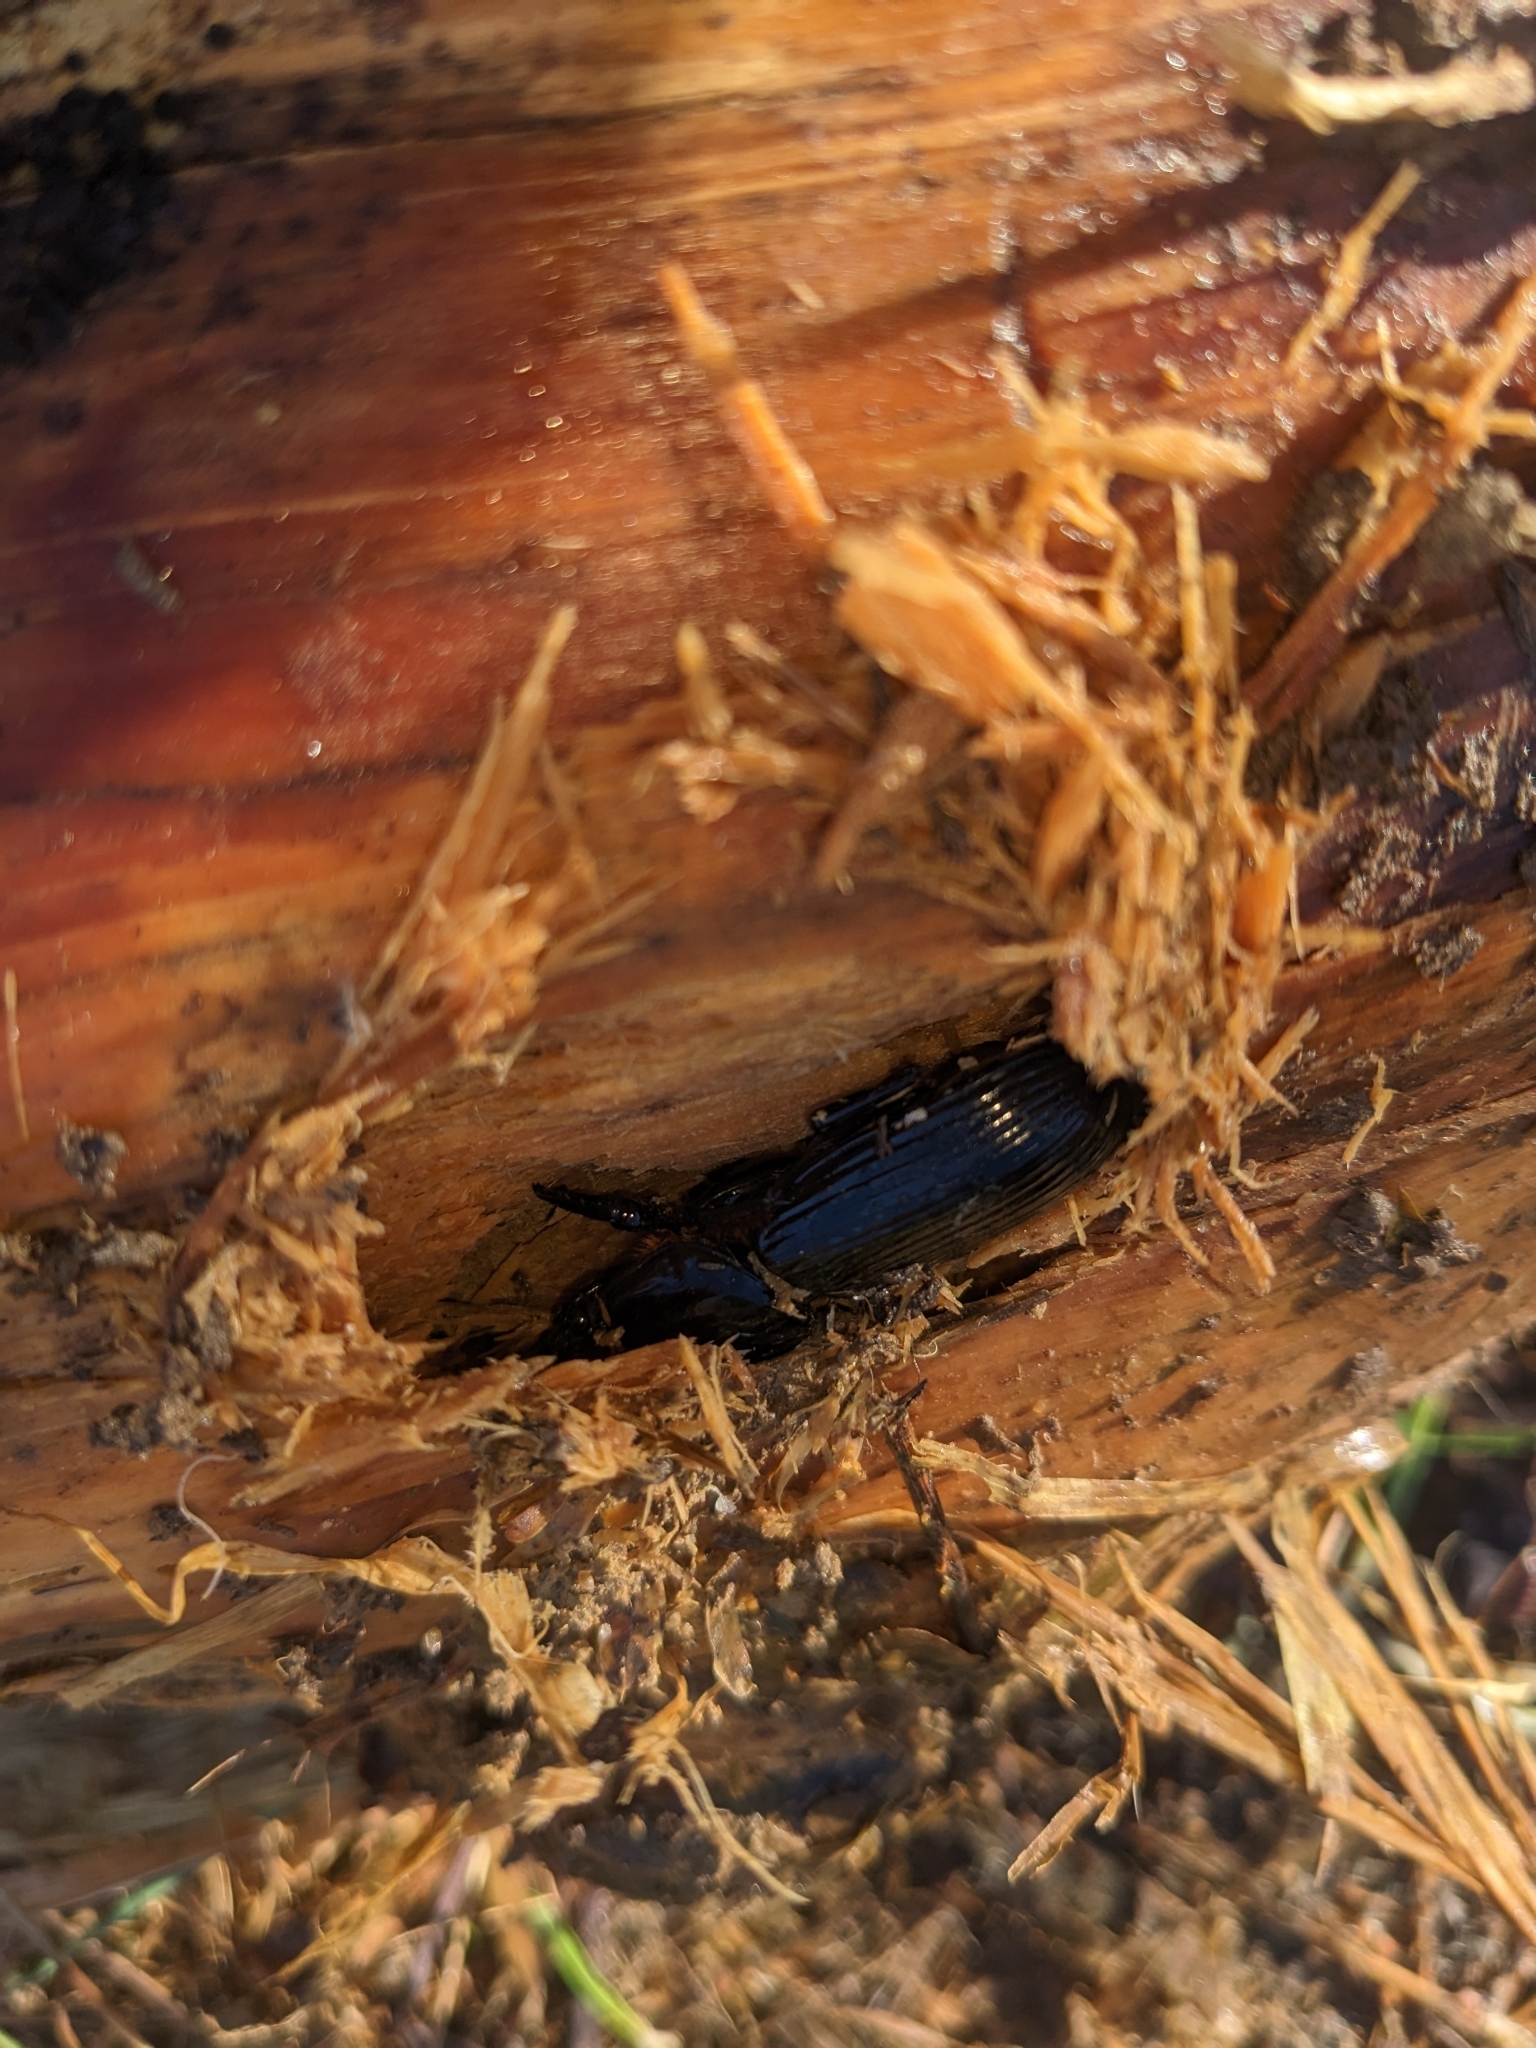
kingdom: Animalia
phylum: Arthropoda
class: Insecta
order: Coleoptera
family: Passalidae
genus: Odontotaenius
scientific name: Odontotaenius disjunctus
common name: Patent leather beetle
